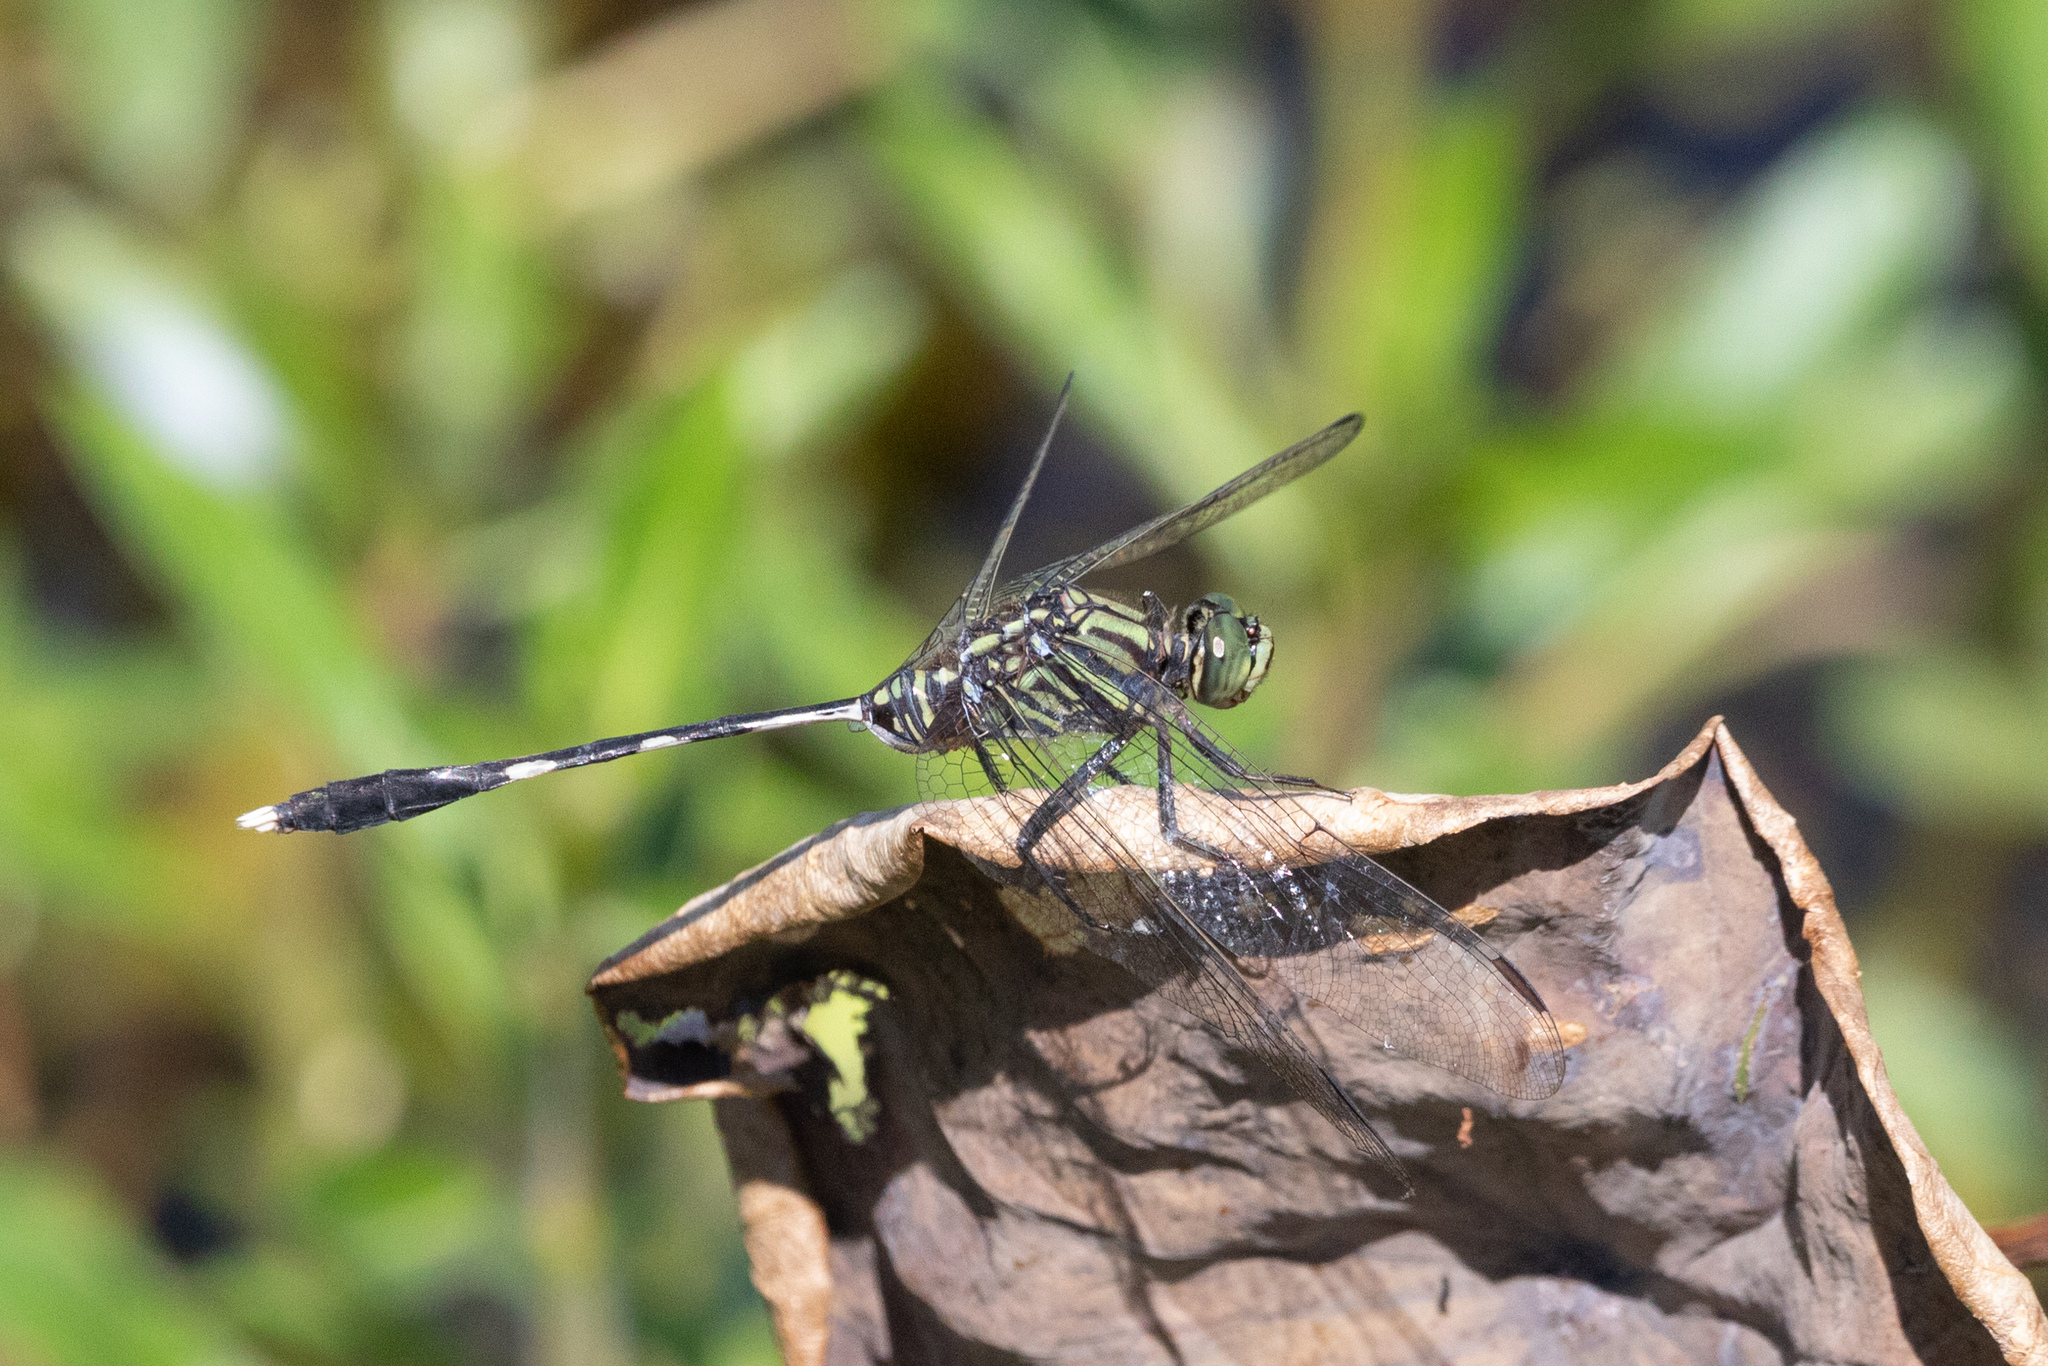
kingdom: Animalia
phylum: Arthropoda
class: Insecta
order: Odonata
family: Libellulidae
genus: Orthetrum
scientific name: Orthetrum sabina
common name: Slender skimmer
